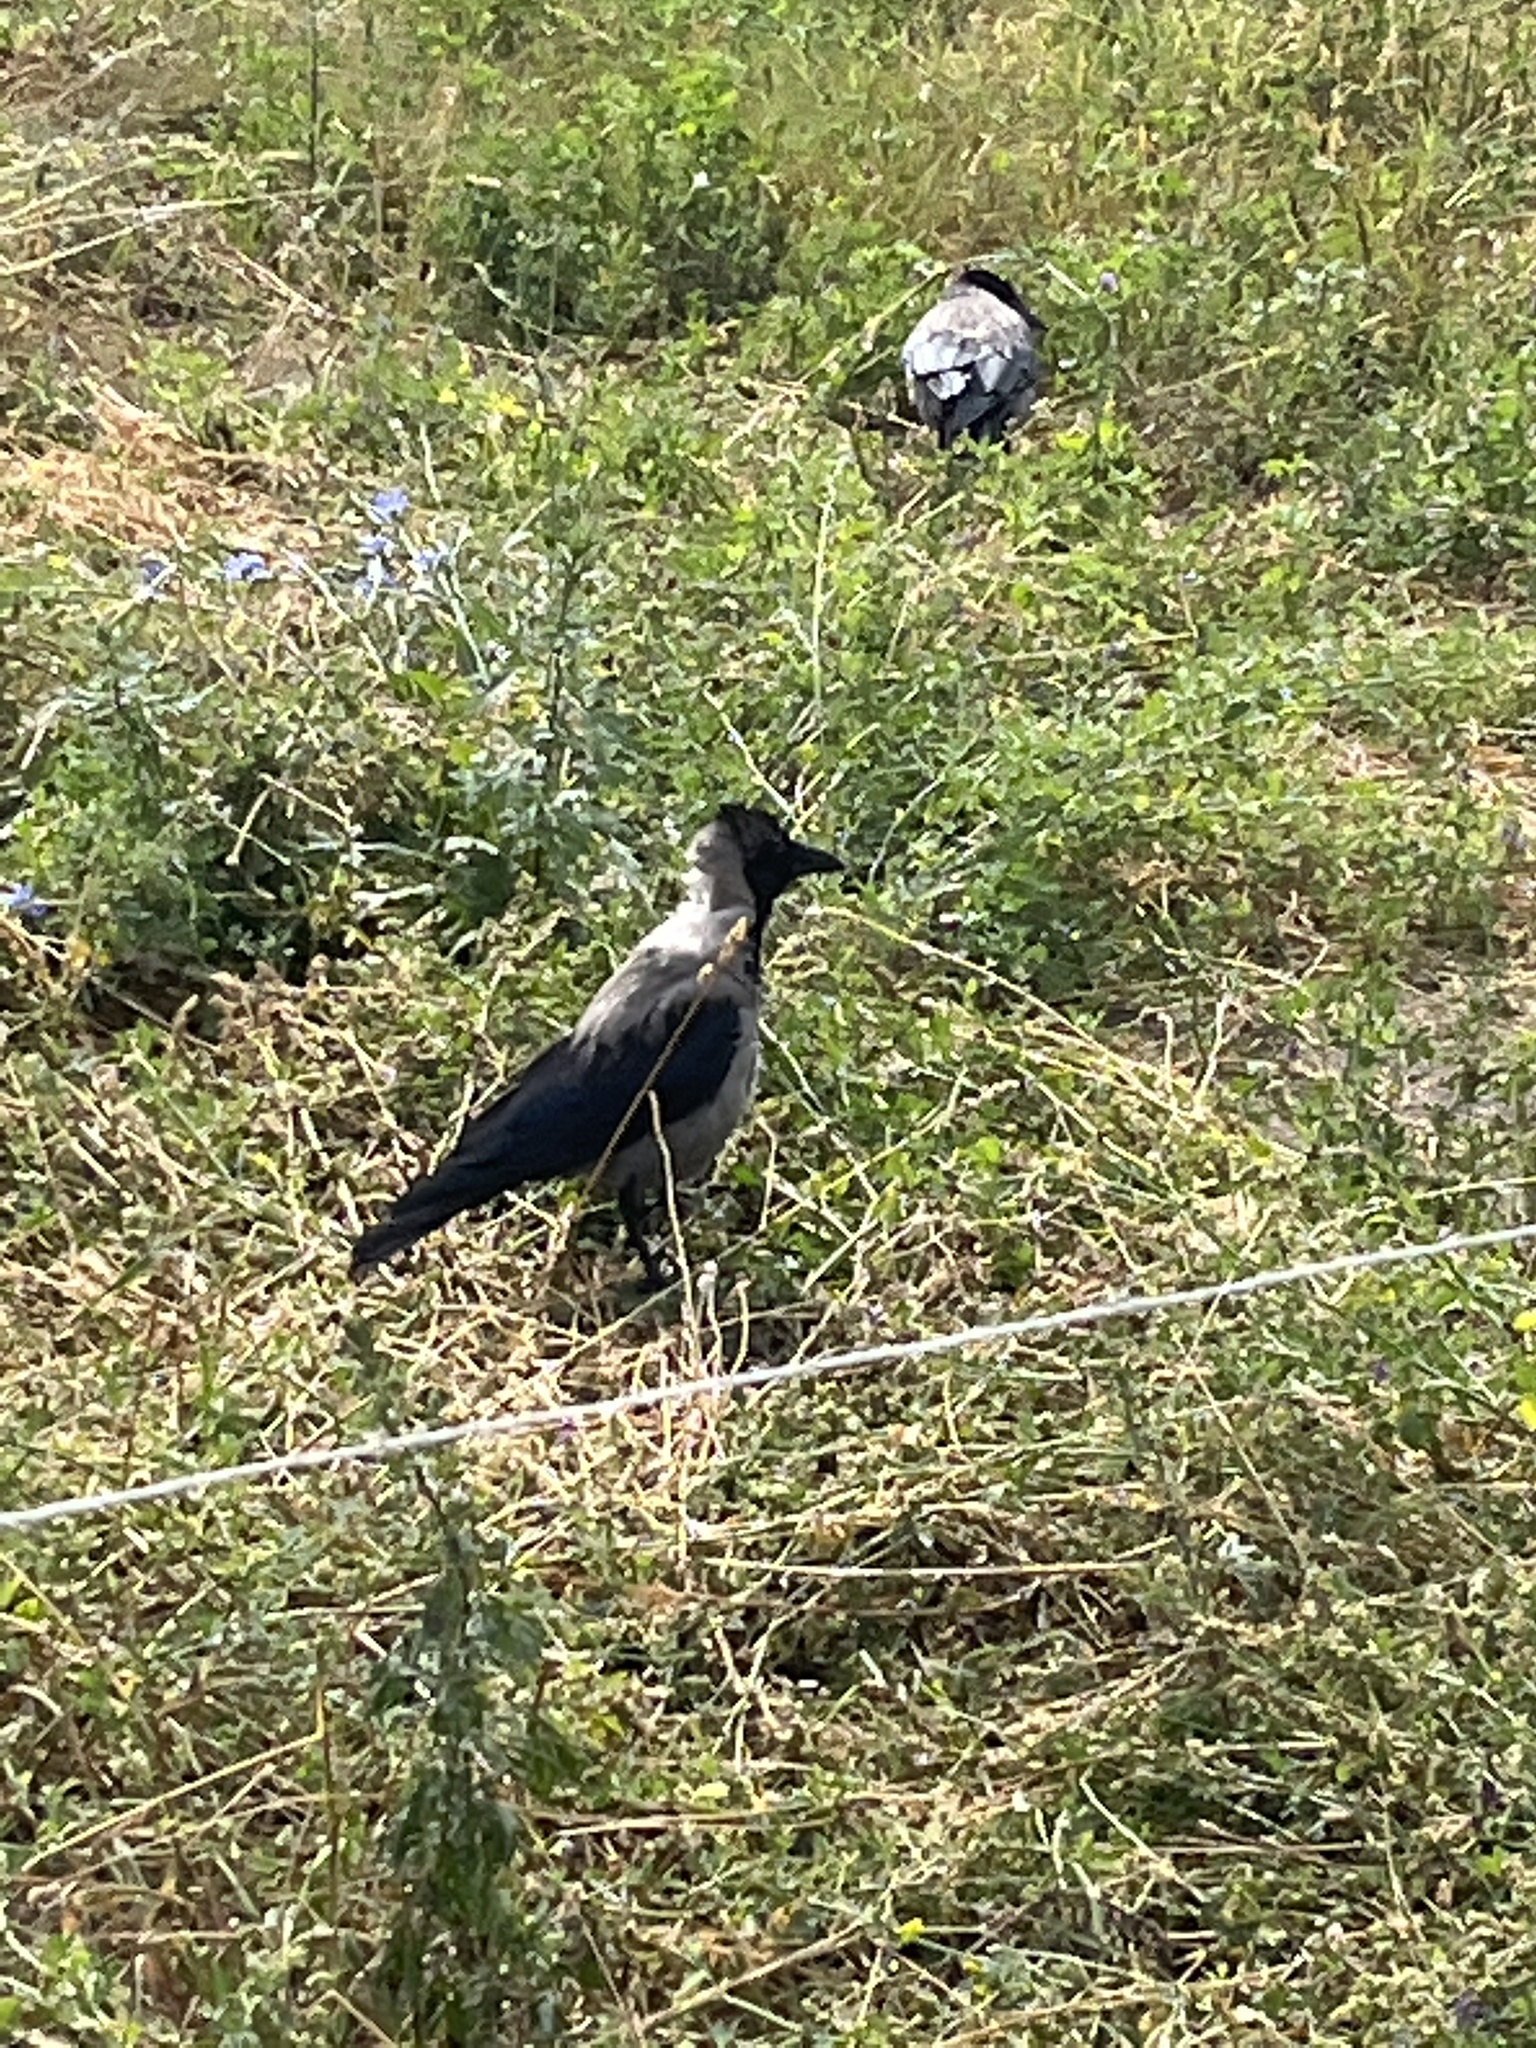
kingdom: Animalia
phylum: Chordata
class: Aves
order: Passeriformes
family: Corvidae
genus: Corvus
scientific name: Corvus cornix
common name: Hooded crow
